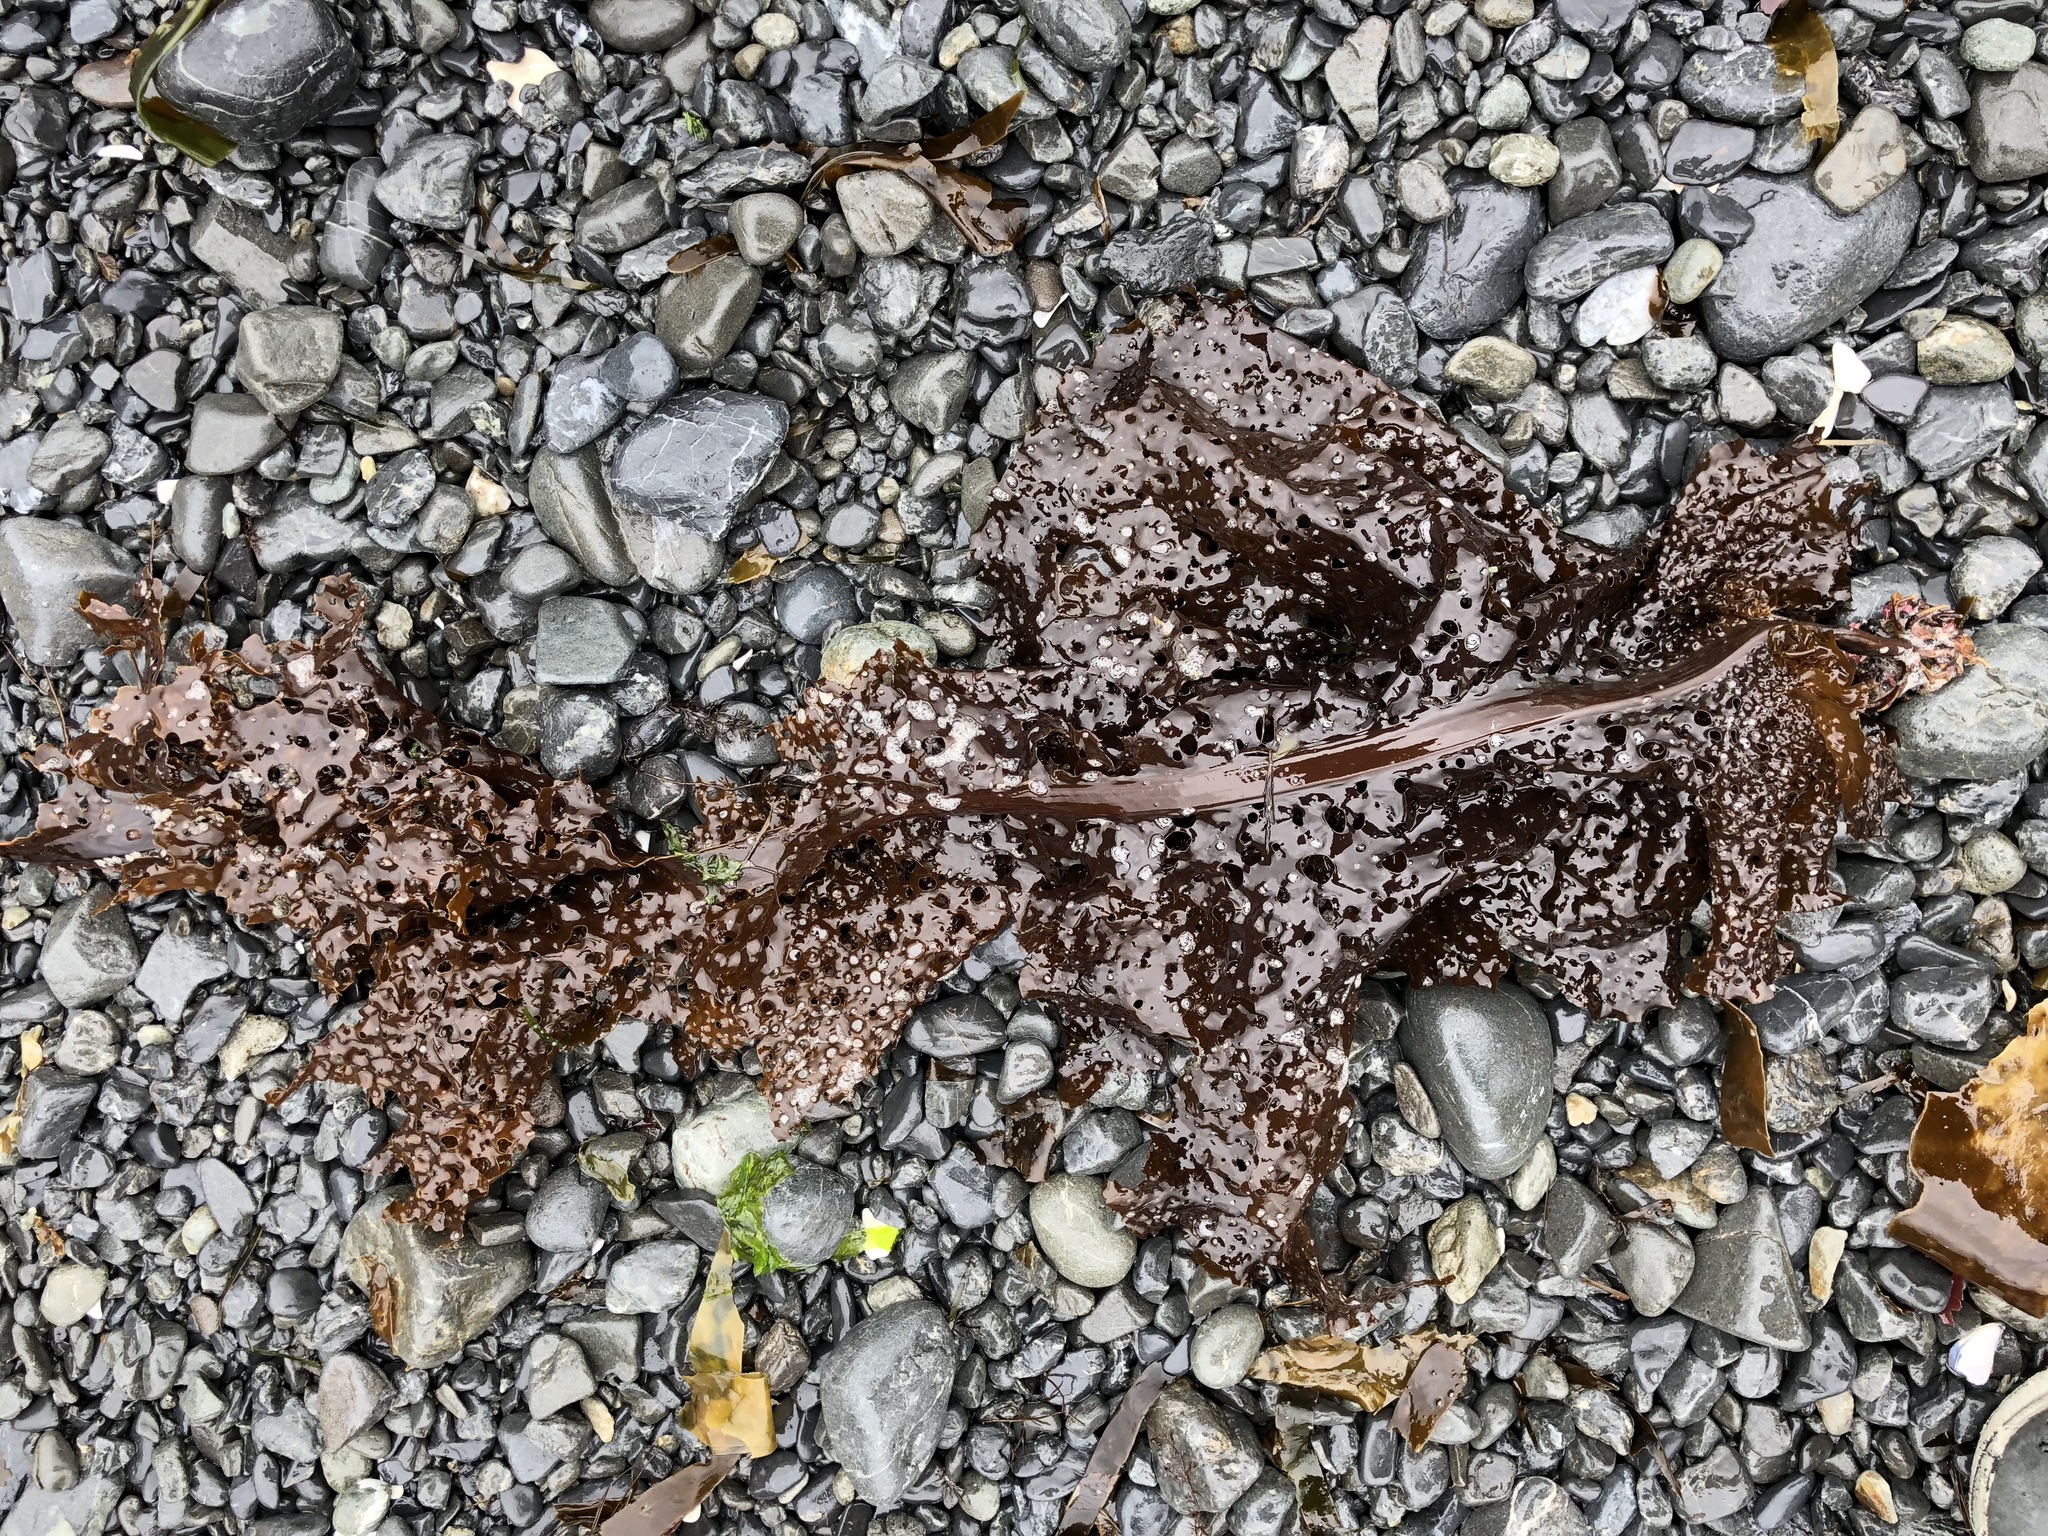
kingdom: Chromista
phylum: Ochrophyta
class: Phaeophyceae
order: Laminariales
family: Costariaceae
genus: Agarum
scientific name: Agarum clathratum
